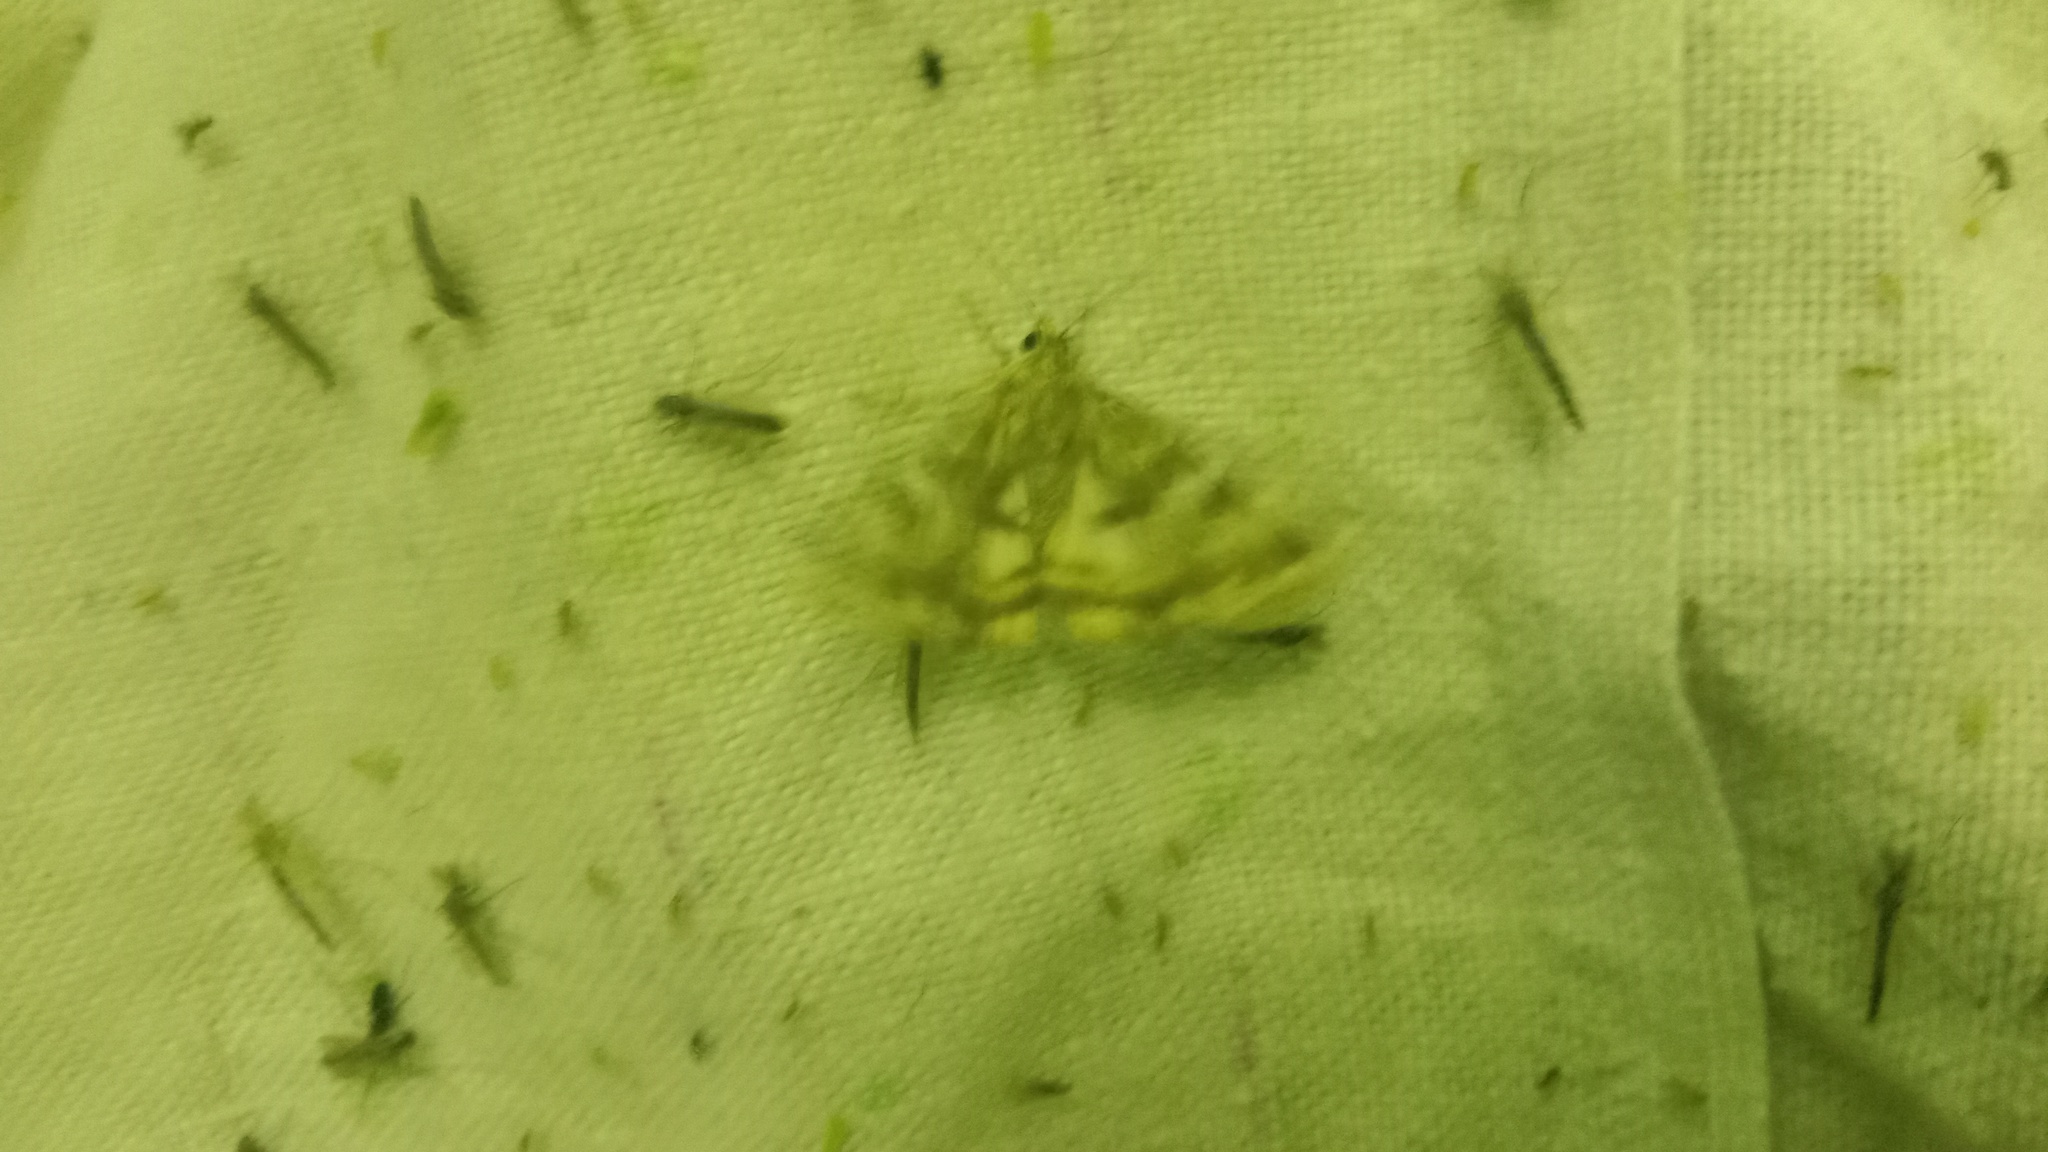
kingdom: Animalia
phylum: Arthropoda
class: Insecta
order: Lepidoptera
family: Noctuidae
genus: Protoschinia
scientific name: Protoschinia scutosa
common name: Spotted clover
